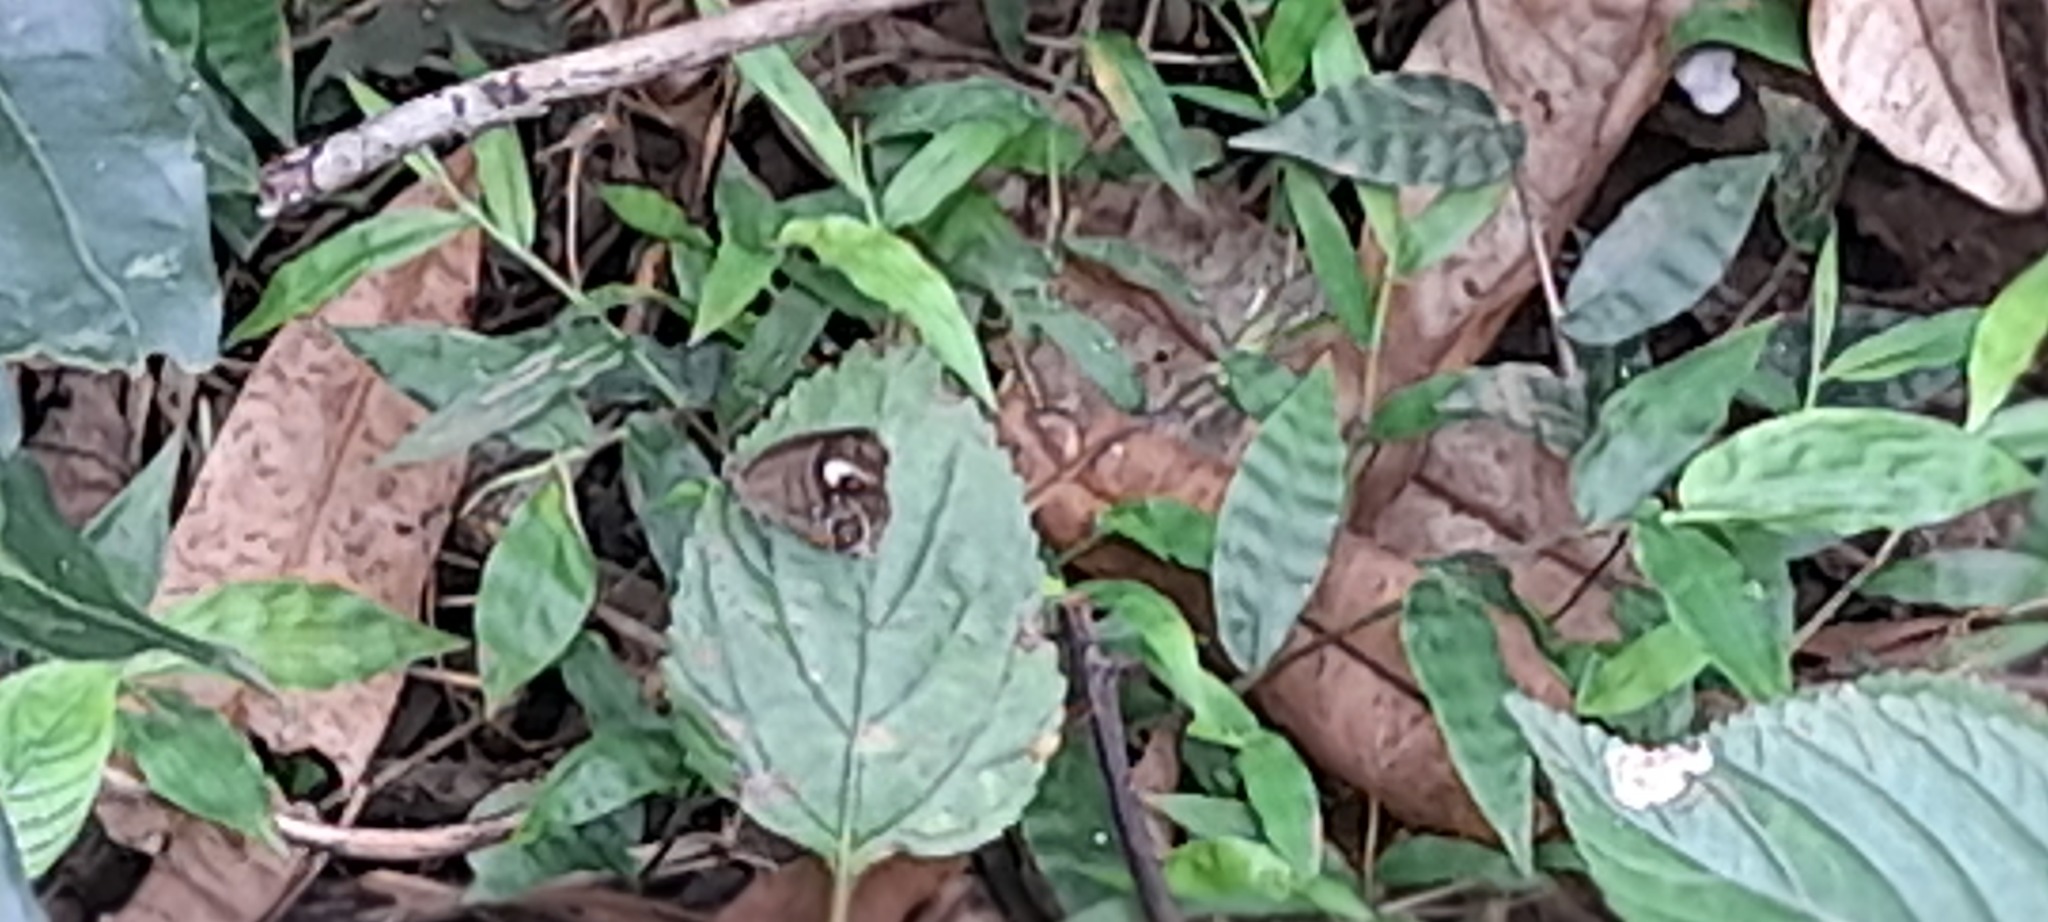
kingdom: Animalia
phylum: Arthropoda
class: Insecta
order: Lepidoptera
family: Nymphalidae
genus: Mycalesis
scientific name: Mycalesis patnia
